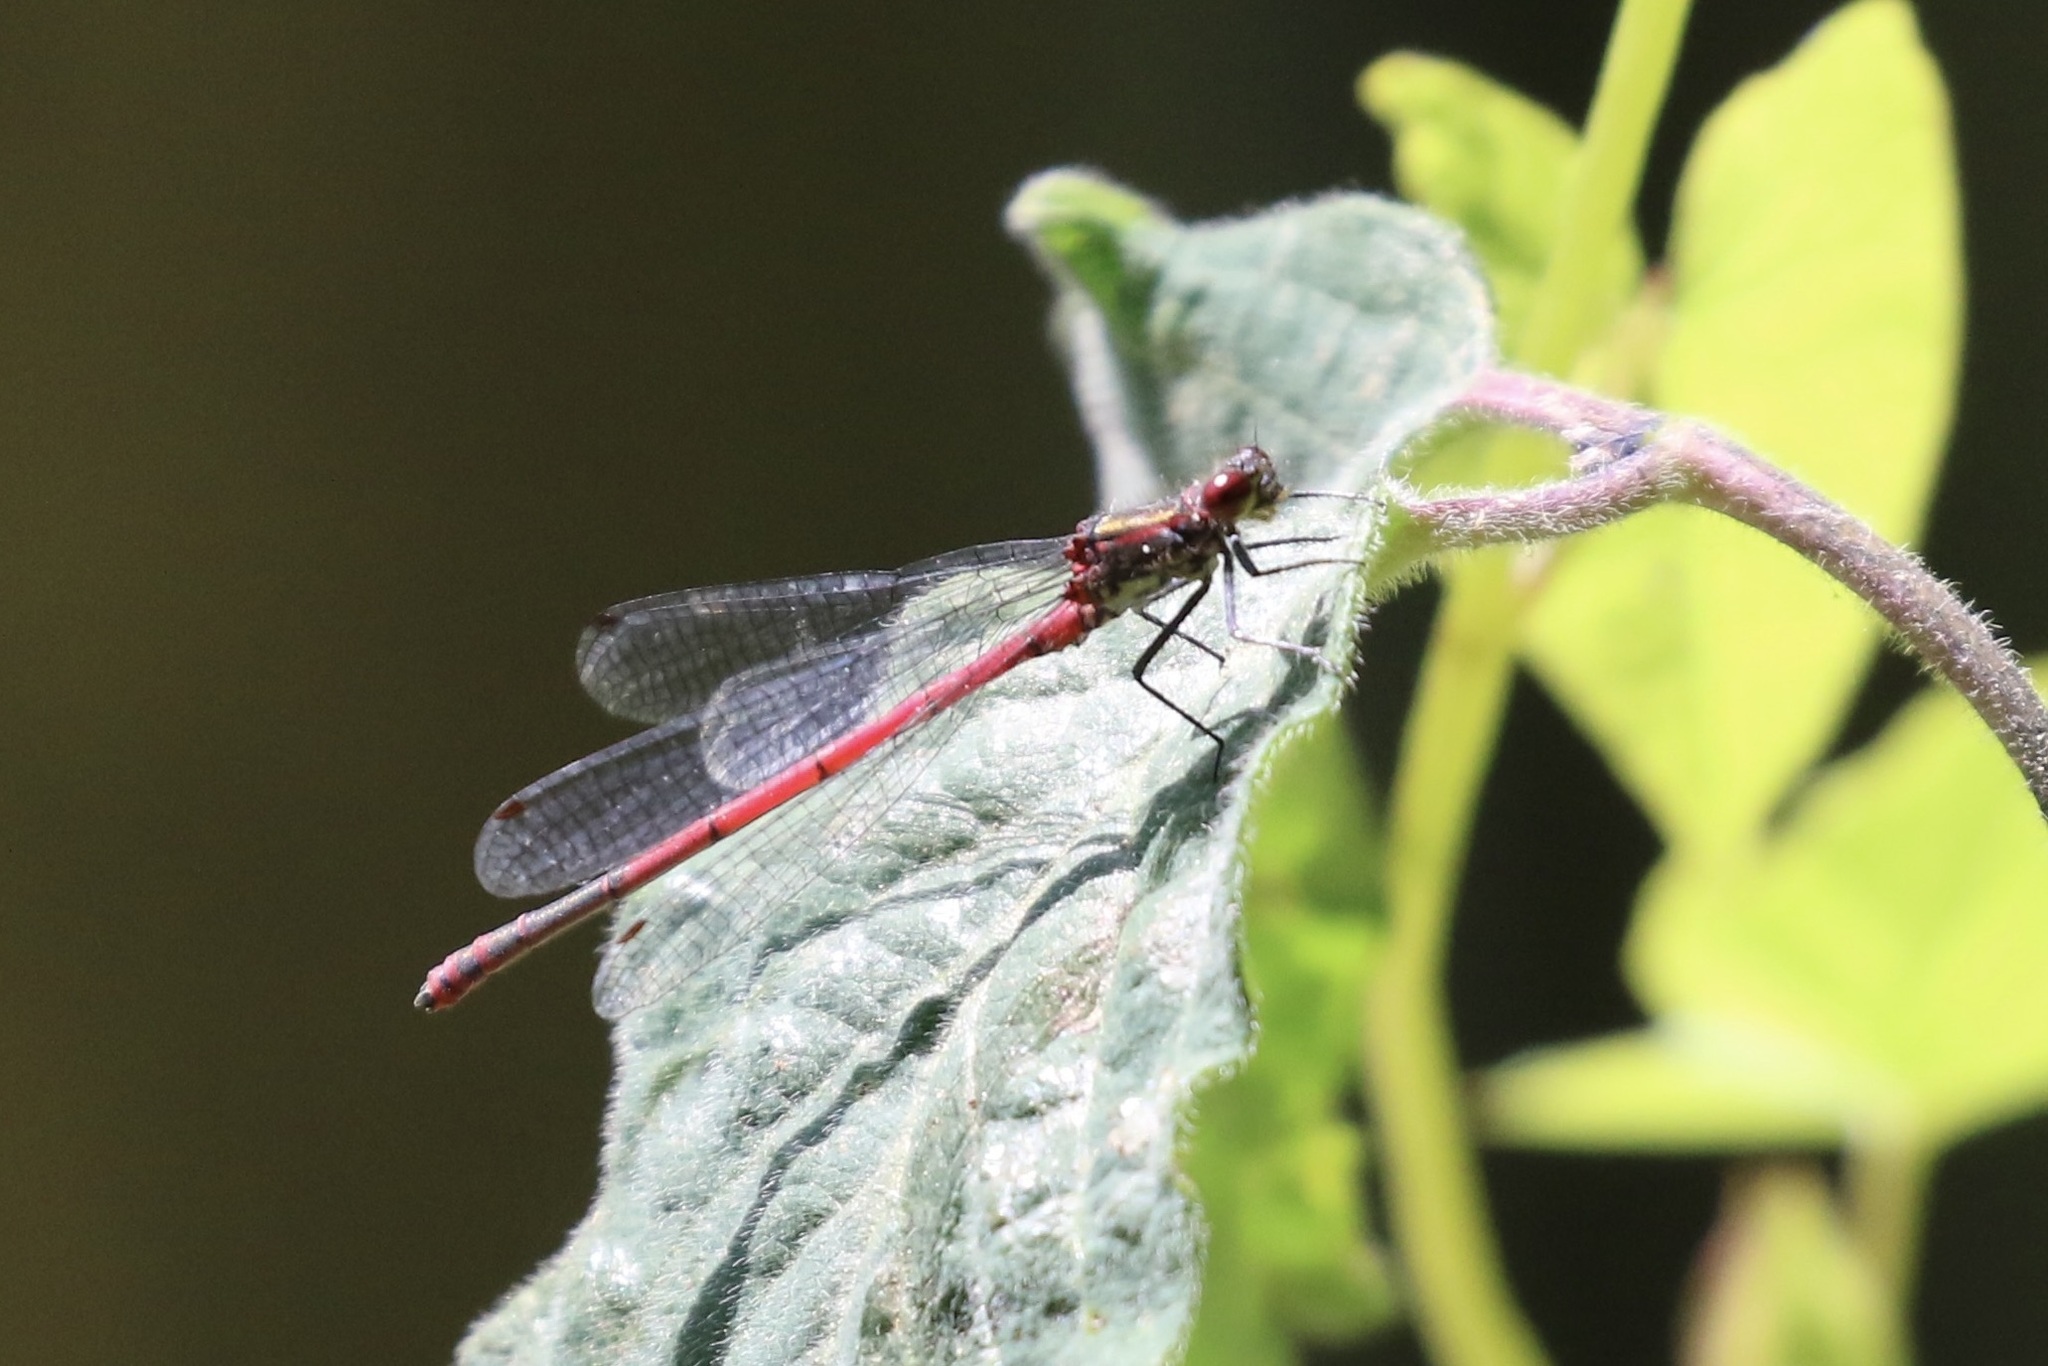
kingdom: Animalia
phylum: Arthropoda
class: Insecta
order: Odonata
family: Coenagrionidae
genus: Pyrrhosoma
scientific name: Pyrrhosoma nymphula
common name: Large red damsel
